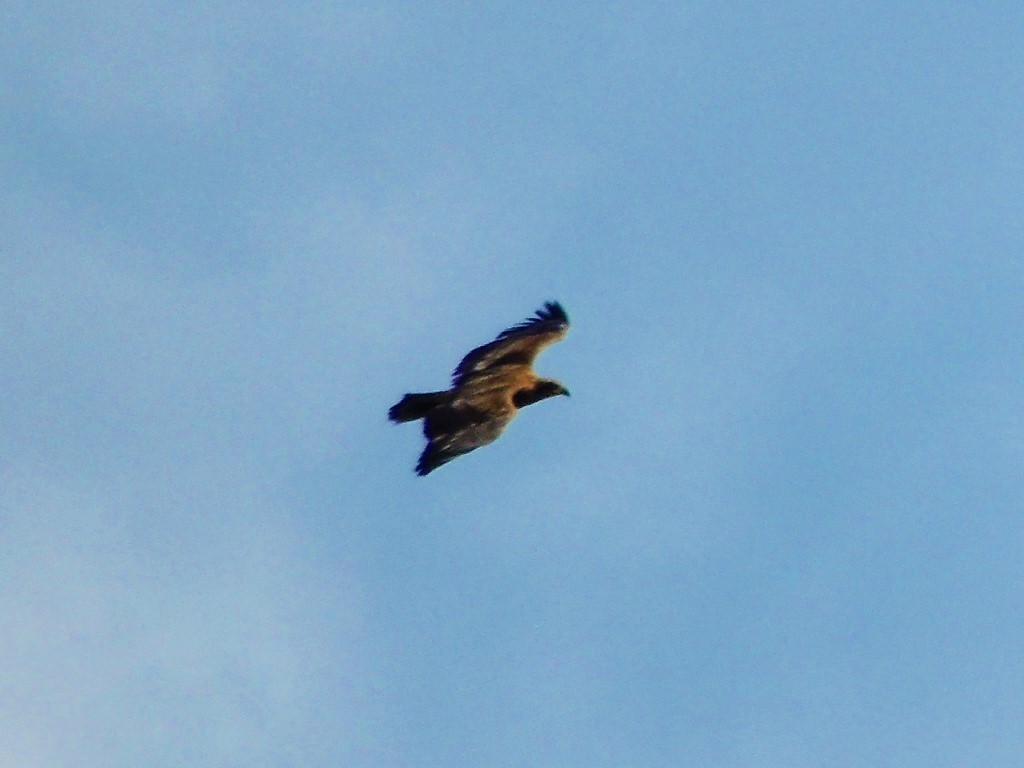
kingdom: Animalia
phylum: Chordata
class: Aves
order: Accipitriformes
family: Accipitridae
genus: Haliaeetus
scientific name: Haliaeetus leucocephalus
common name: Bald eagle
